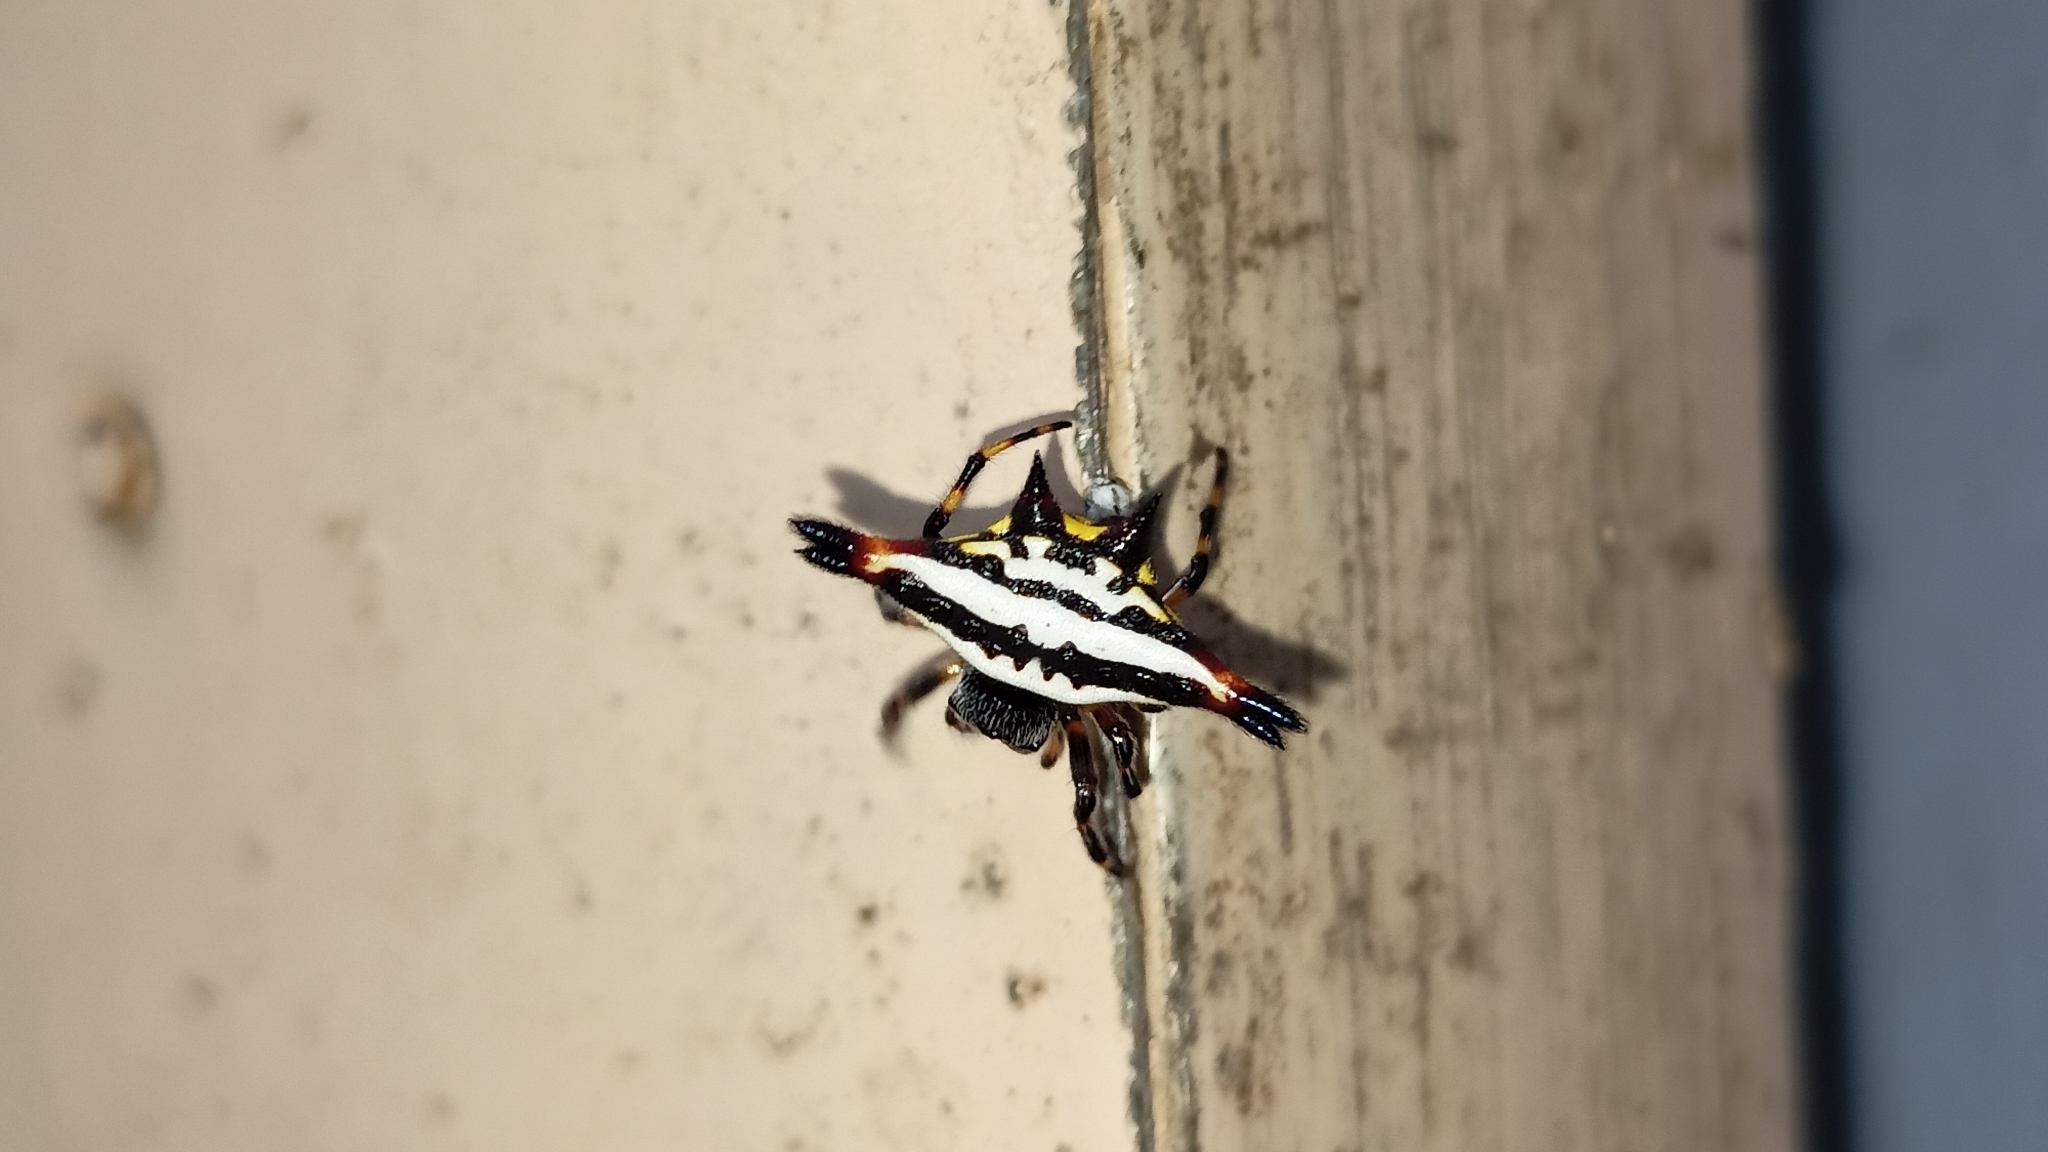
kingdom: Animalia
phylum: Arthropoda
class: Arachnida
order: Araneae
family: Araneidae
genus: Gasteracantha
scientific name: Gasteracantha geminata
